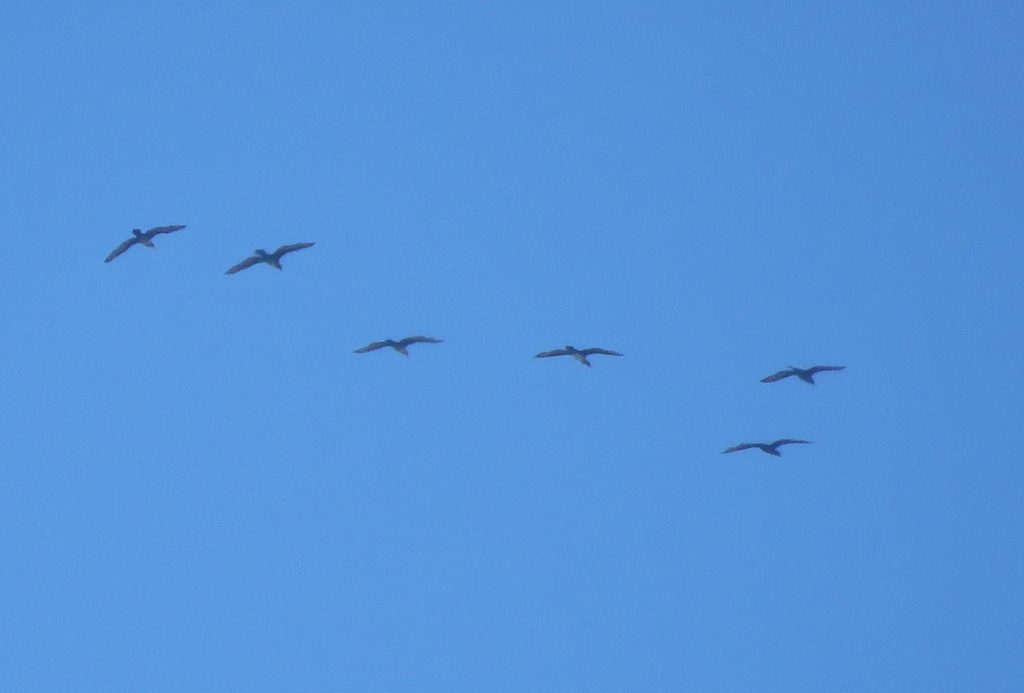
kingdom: Animalia
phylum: Chordata
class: Aves
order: Suliformes
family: Phalacrocoracidae
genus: Phalacrocorax
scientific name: Phalacrocorax brasilianus
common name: Neotropic cormorant
